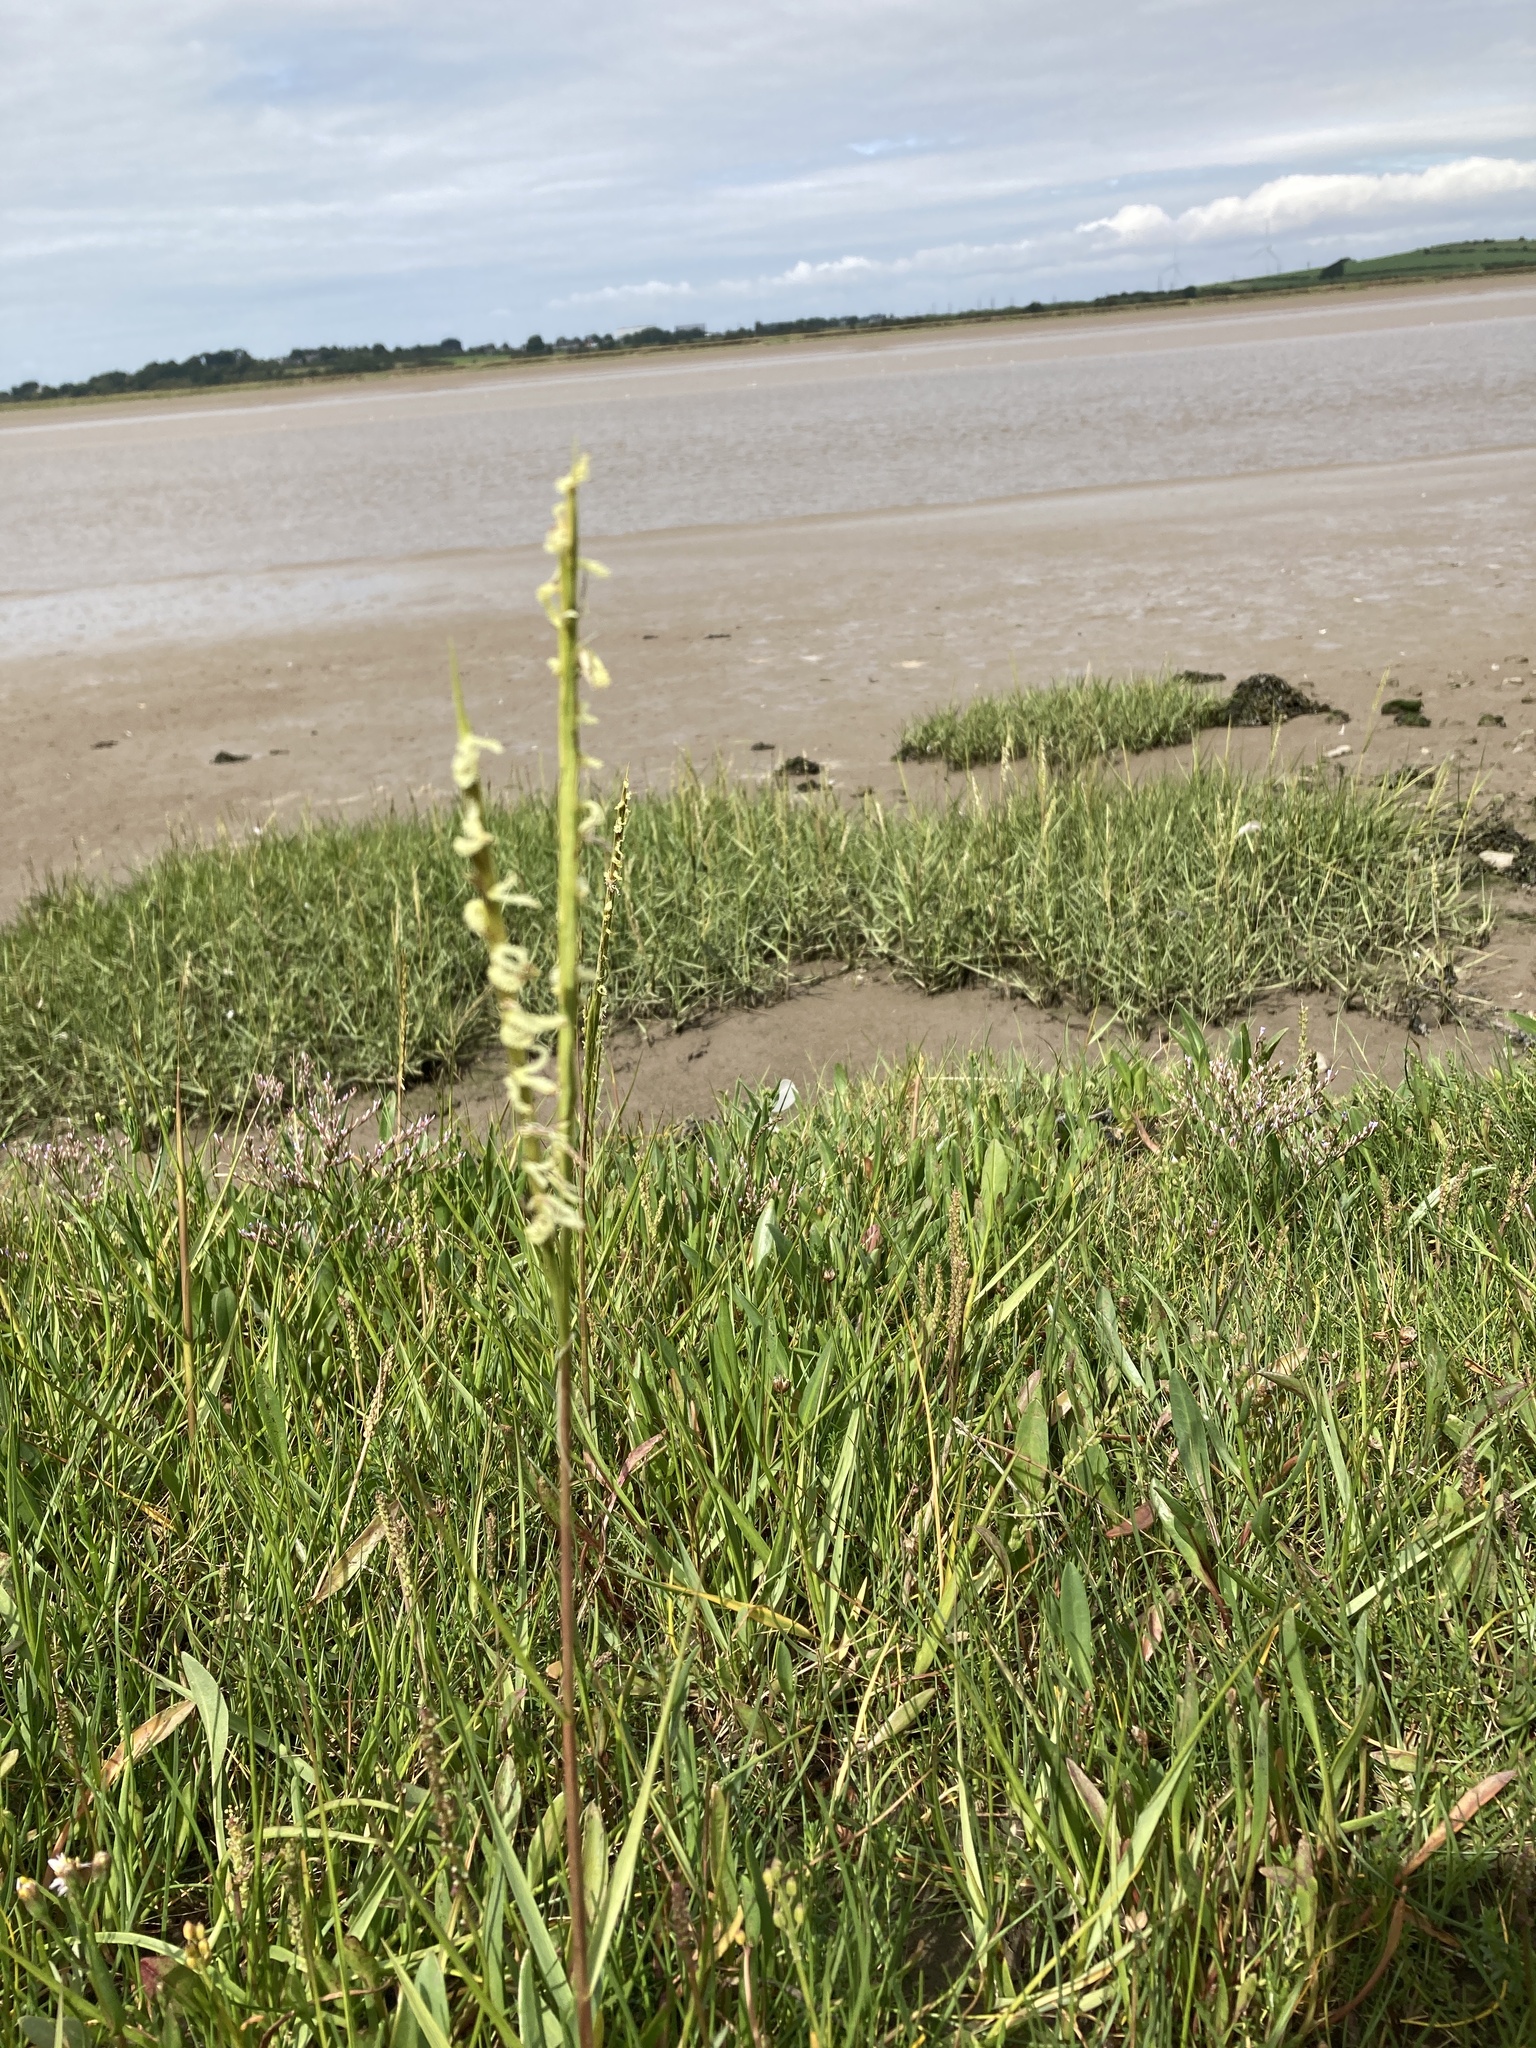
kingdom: Plantae
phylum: Tracheophyta
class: Liliopsida
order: Poales
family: Poaceae
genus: Sporobolus
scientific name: Sporobolus anglicus
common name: English cordgrass
